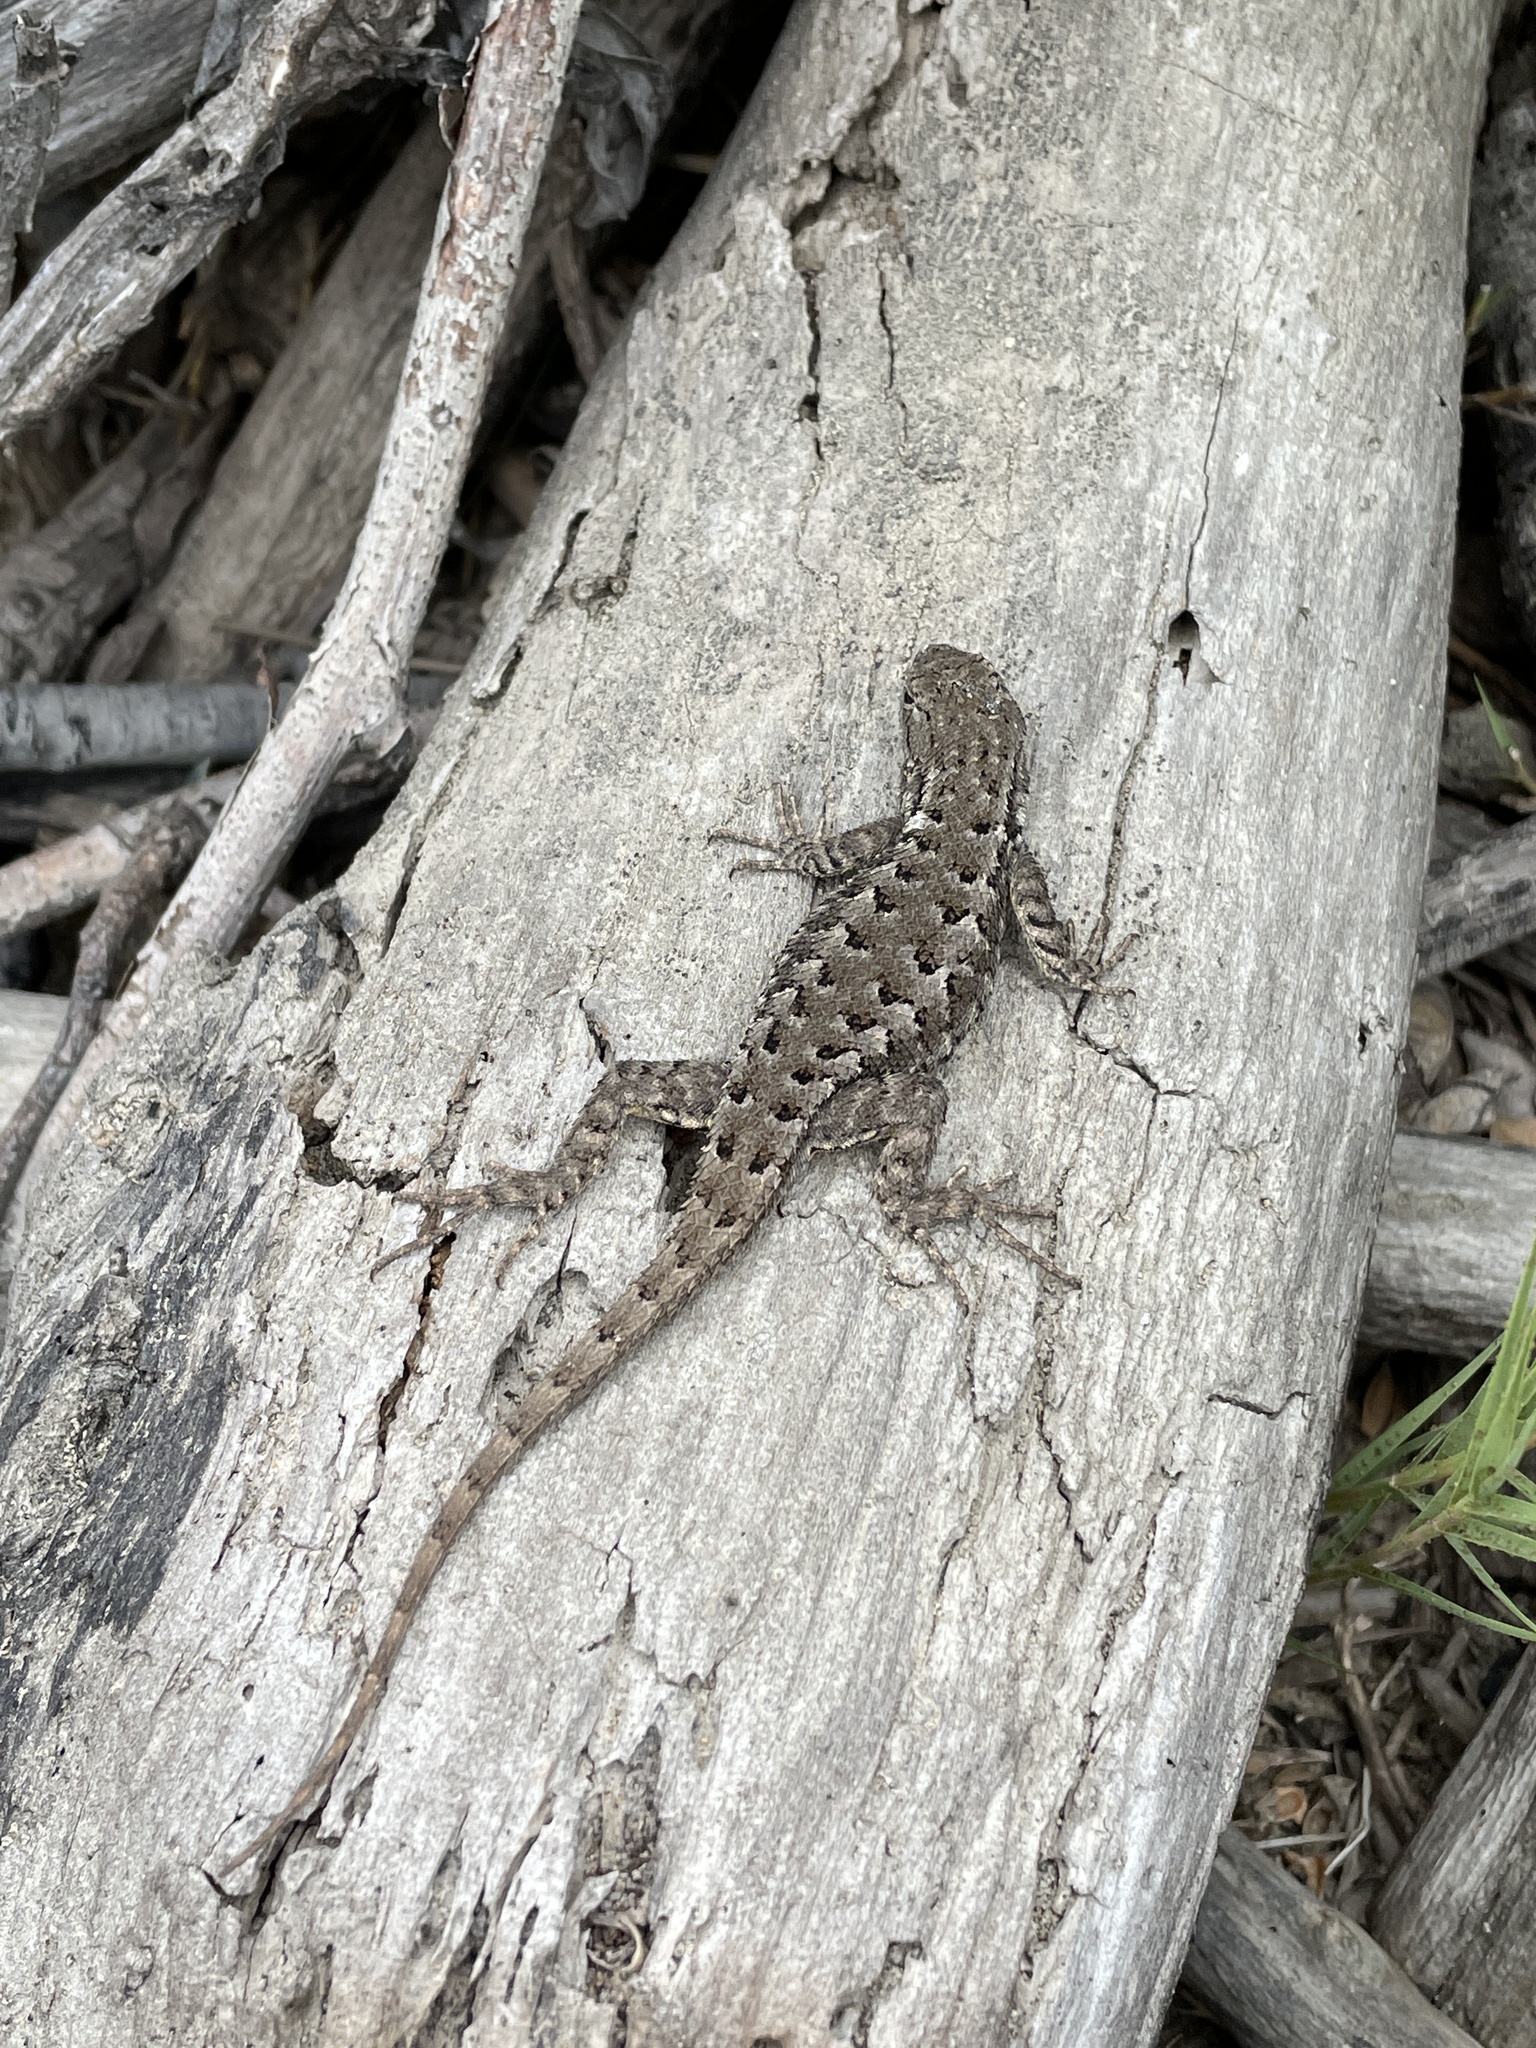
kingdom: Animalia
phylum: Chordata
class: Squamata
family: Phrynosomatidae
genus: Sceloporus
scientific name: Sceloporus occidentalis
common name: Western fence lizard
